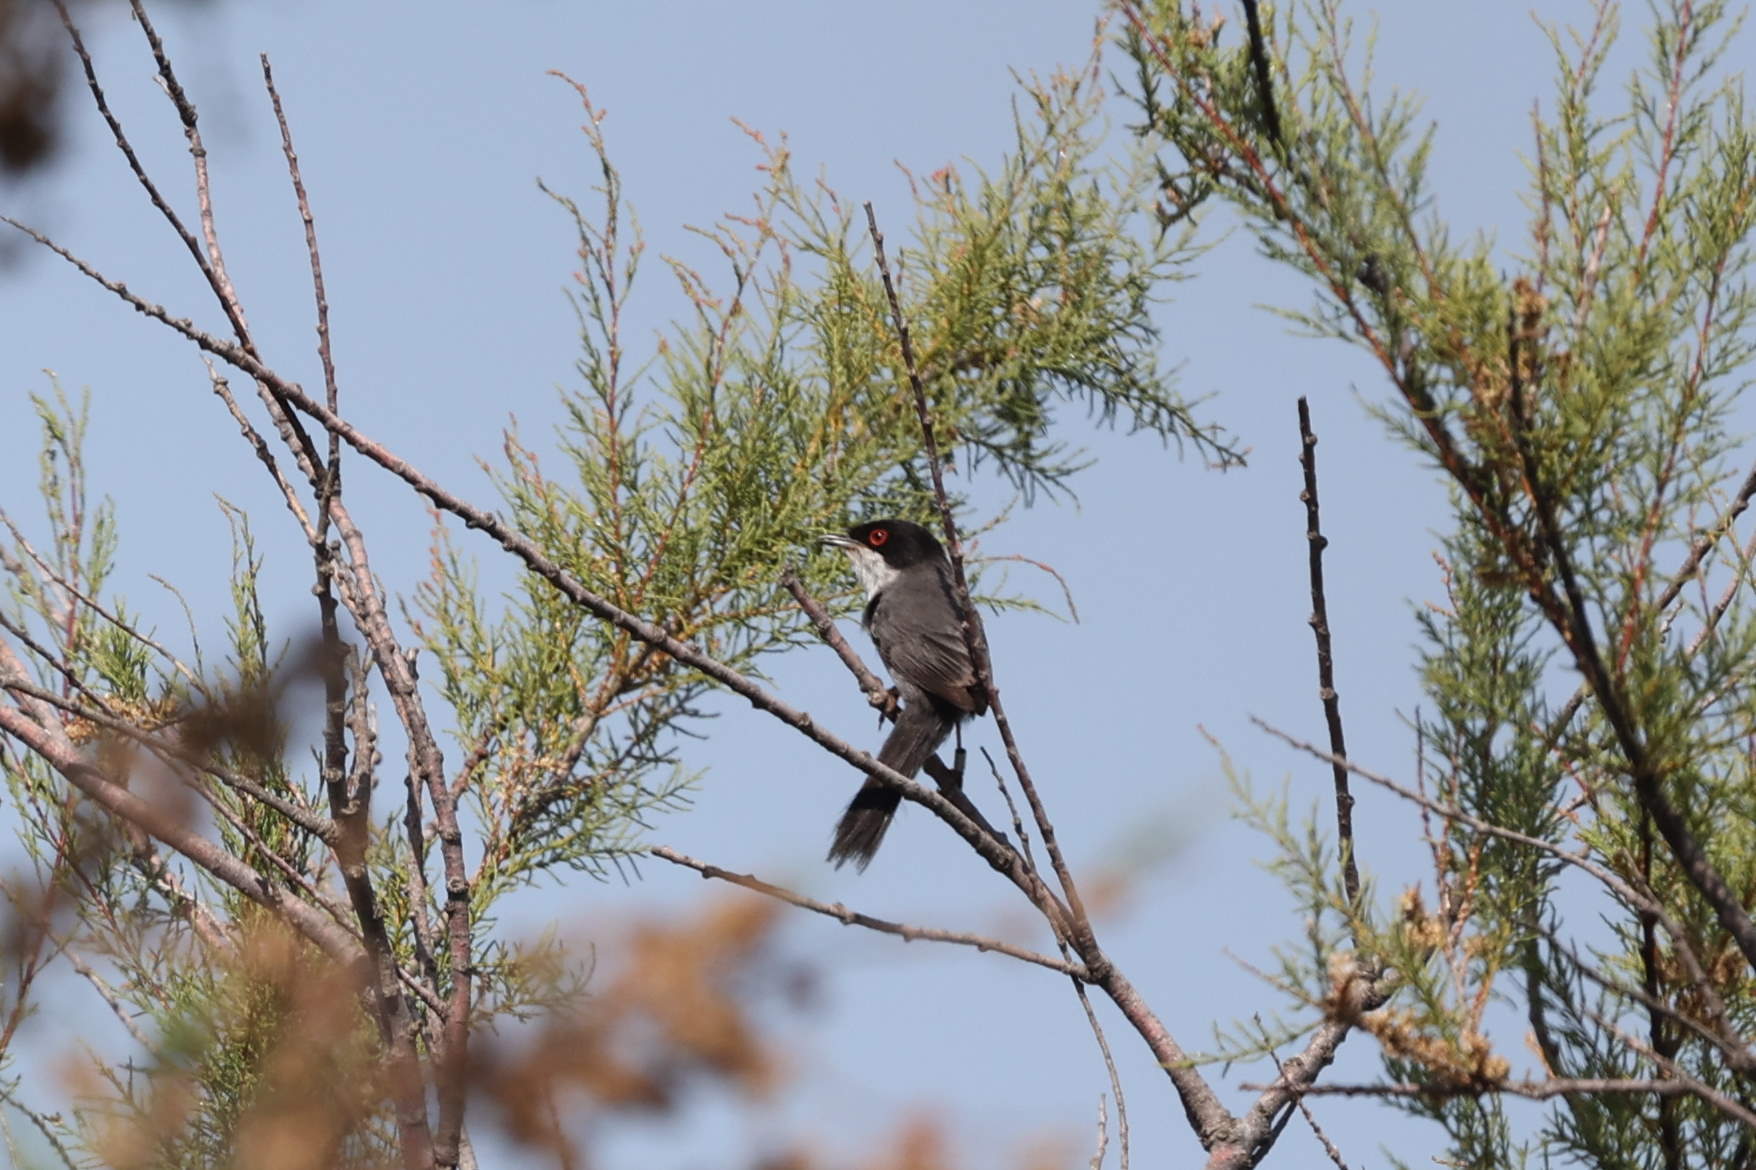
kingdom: Animalia
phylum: Chordata
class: Aves
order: Passeriformes
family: Sylviidae
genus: Curruca
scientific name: Curruca melanocephala
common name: Sardinian warbler
